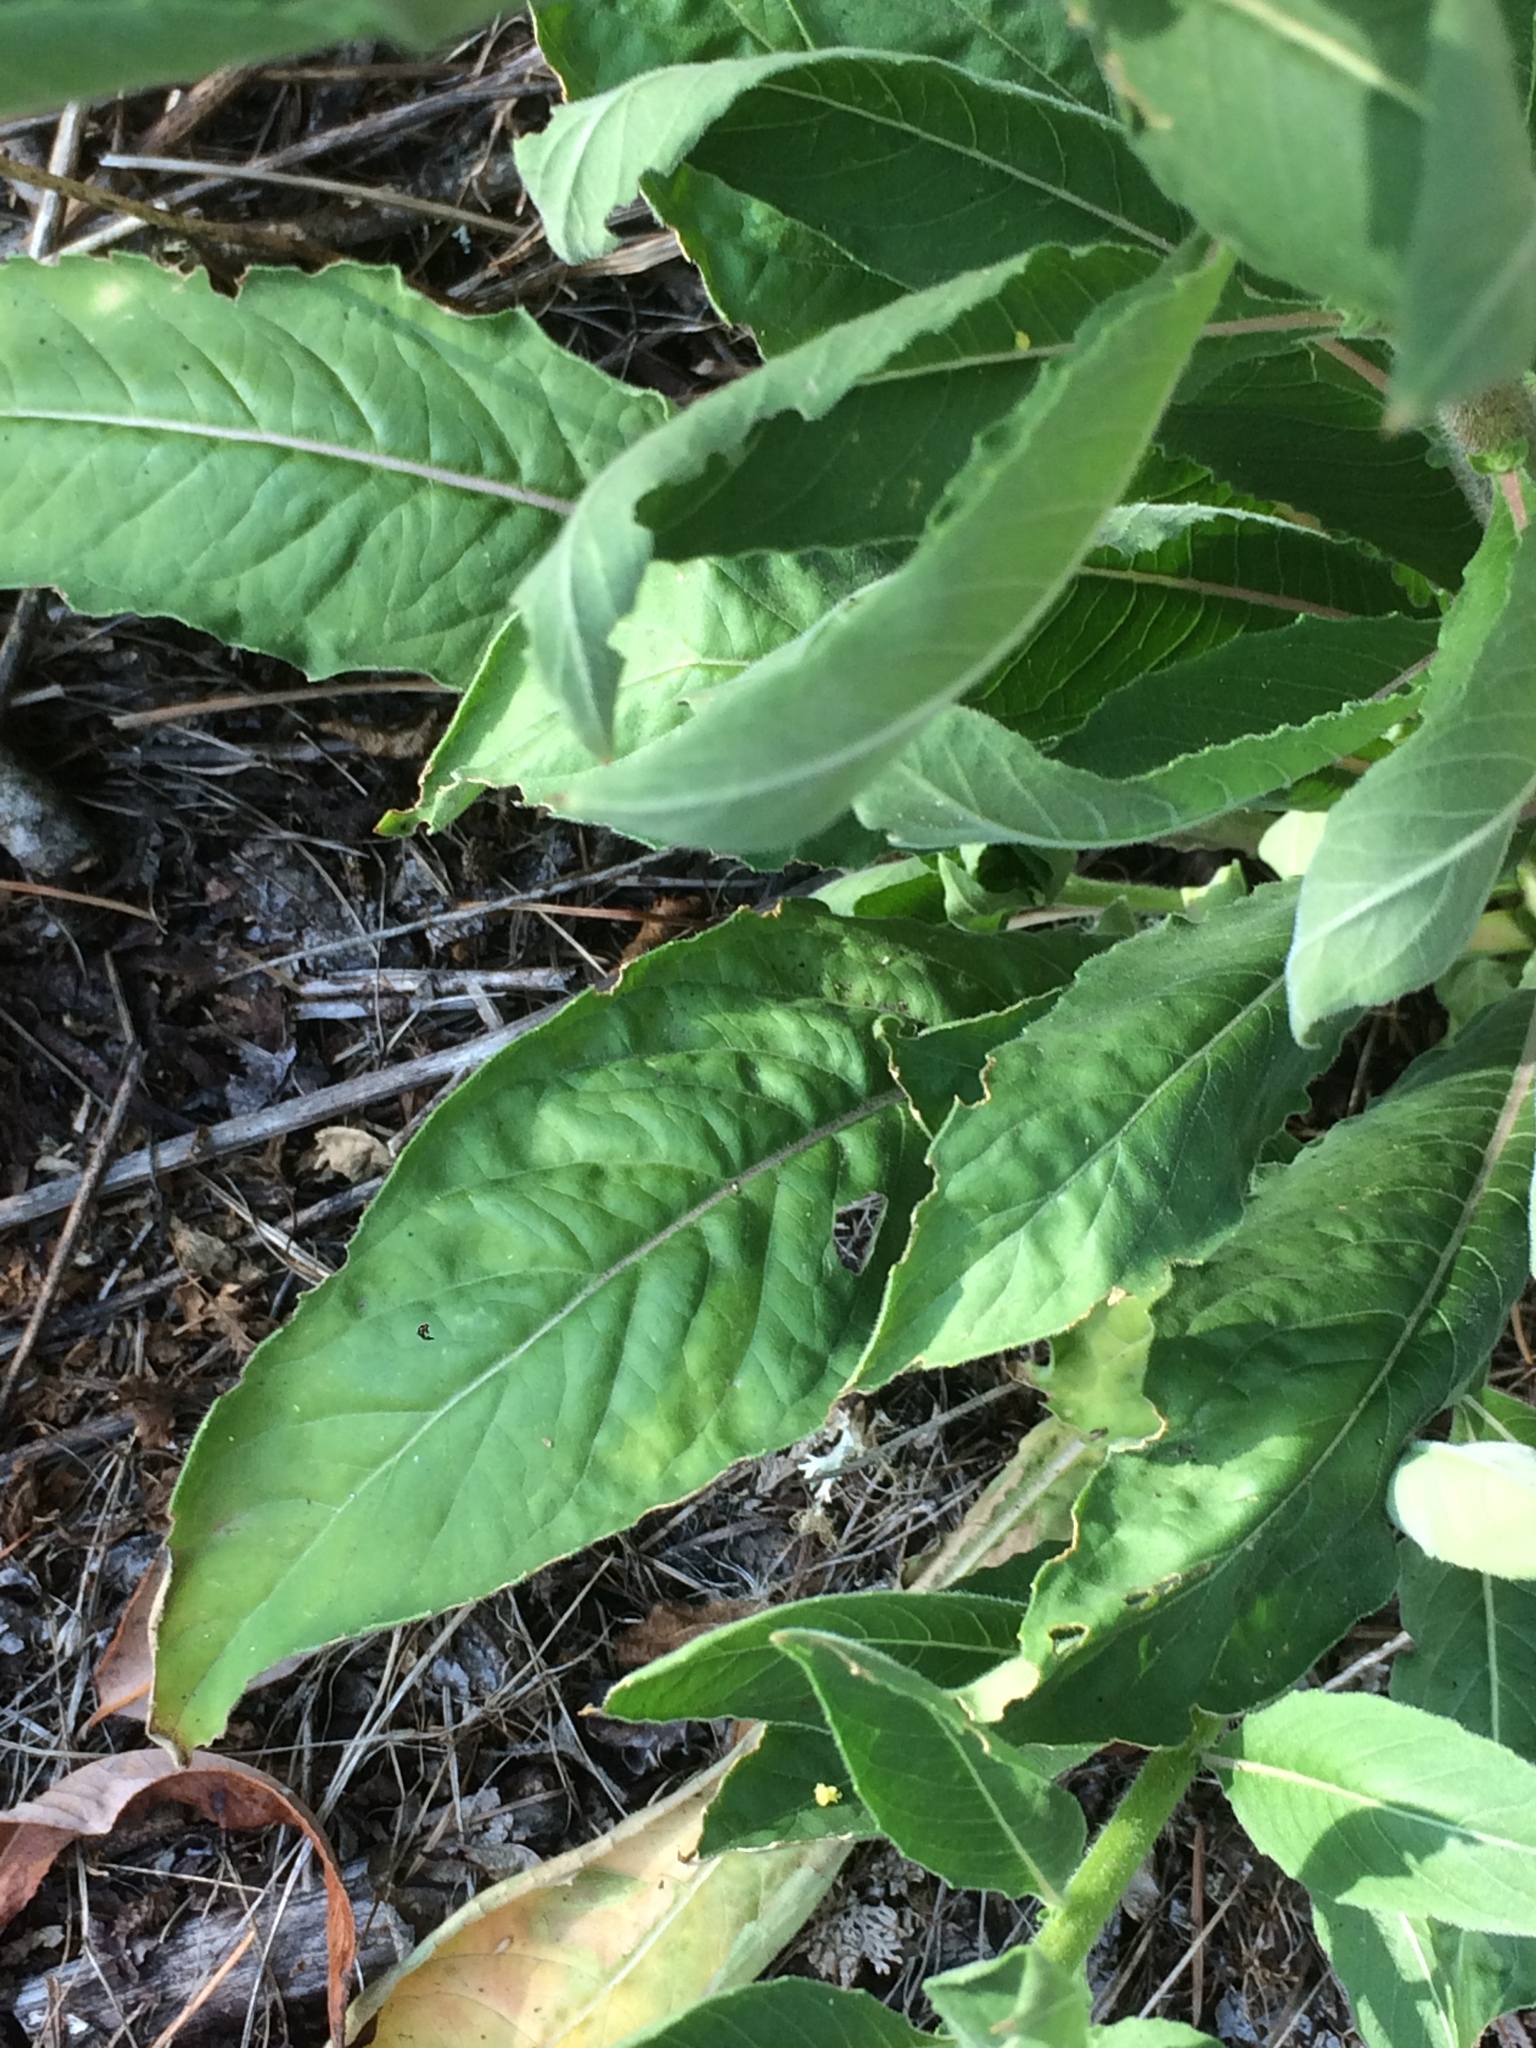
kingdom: Plantae
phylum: Tracheophyta
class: Magnoliopsida
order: Myrtales
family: Onagraceae
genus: Oenothera
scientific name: Oenothera biennis
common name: Common evening-primrose
